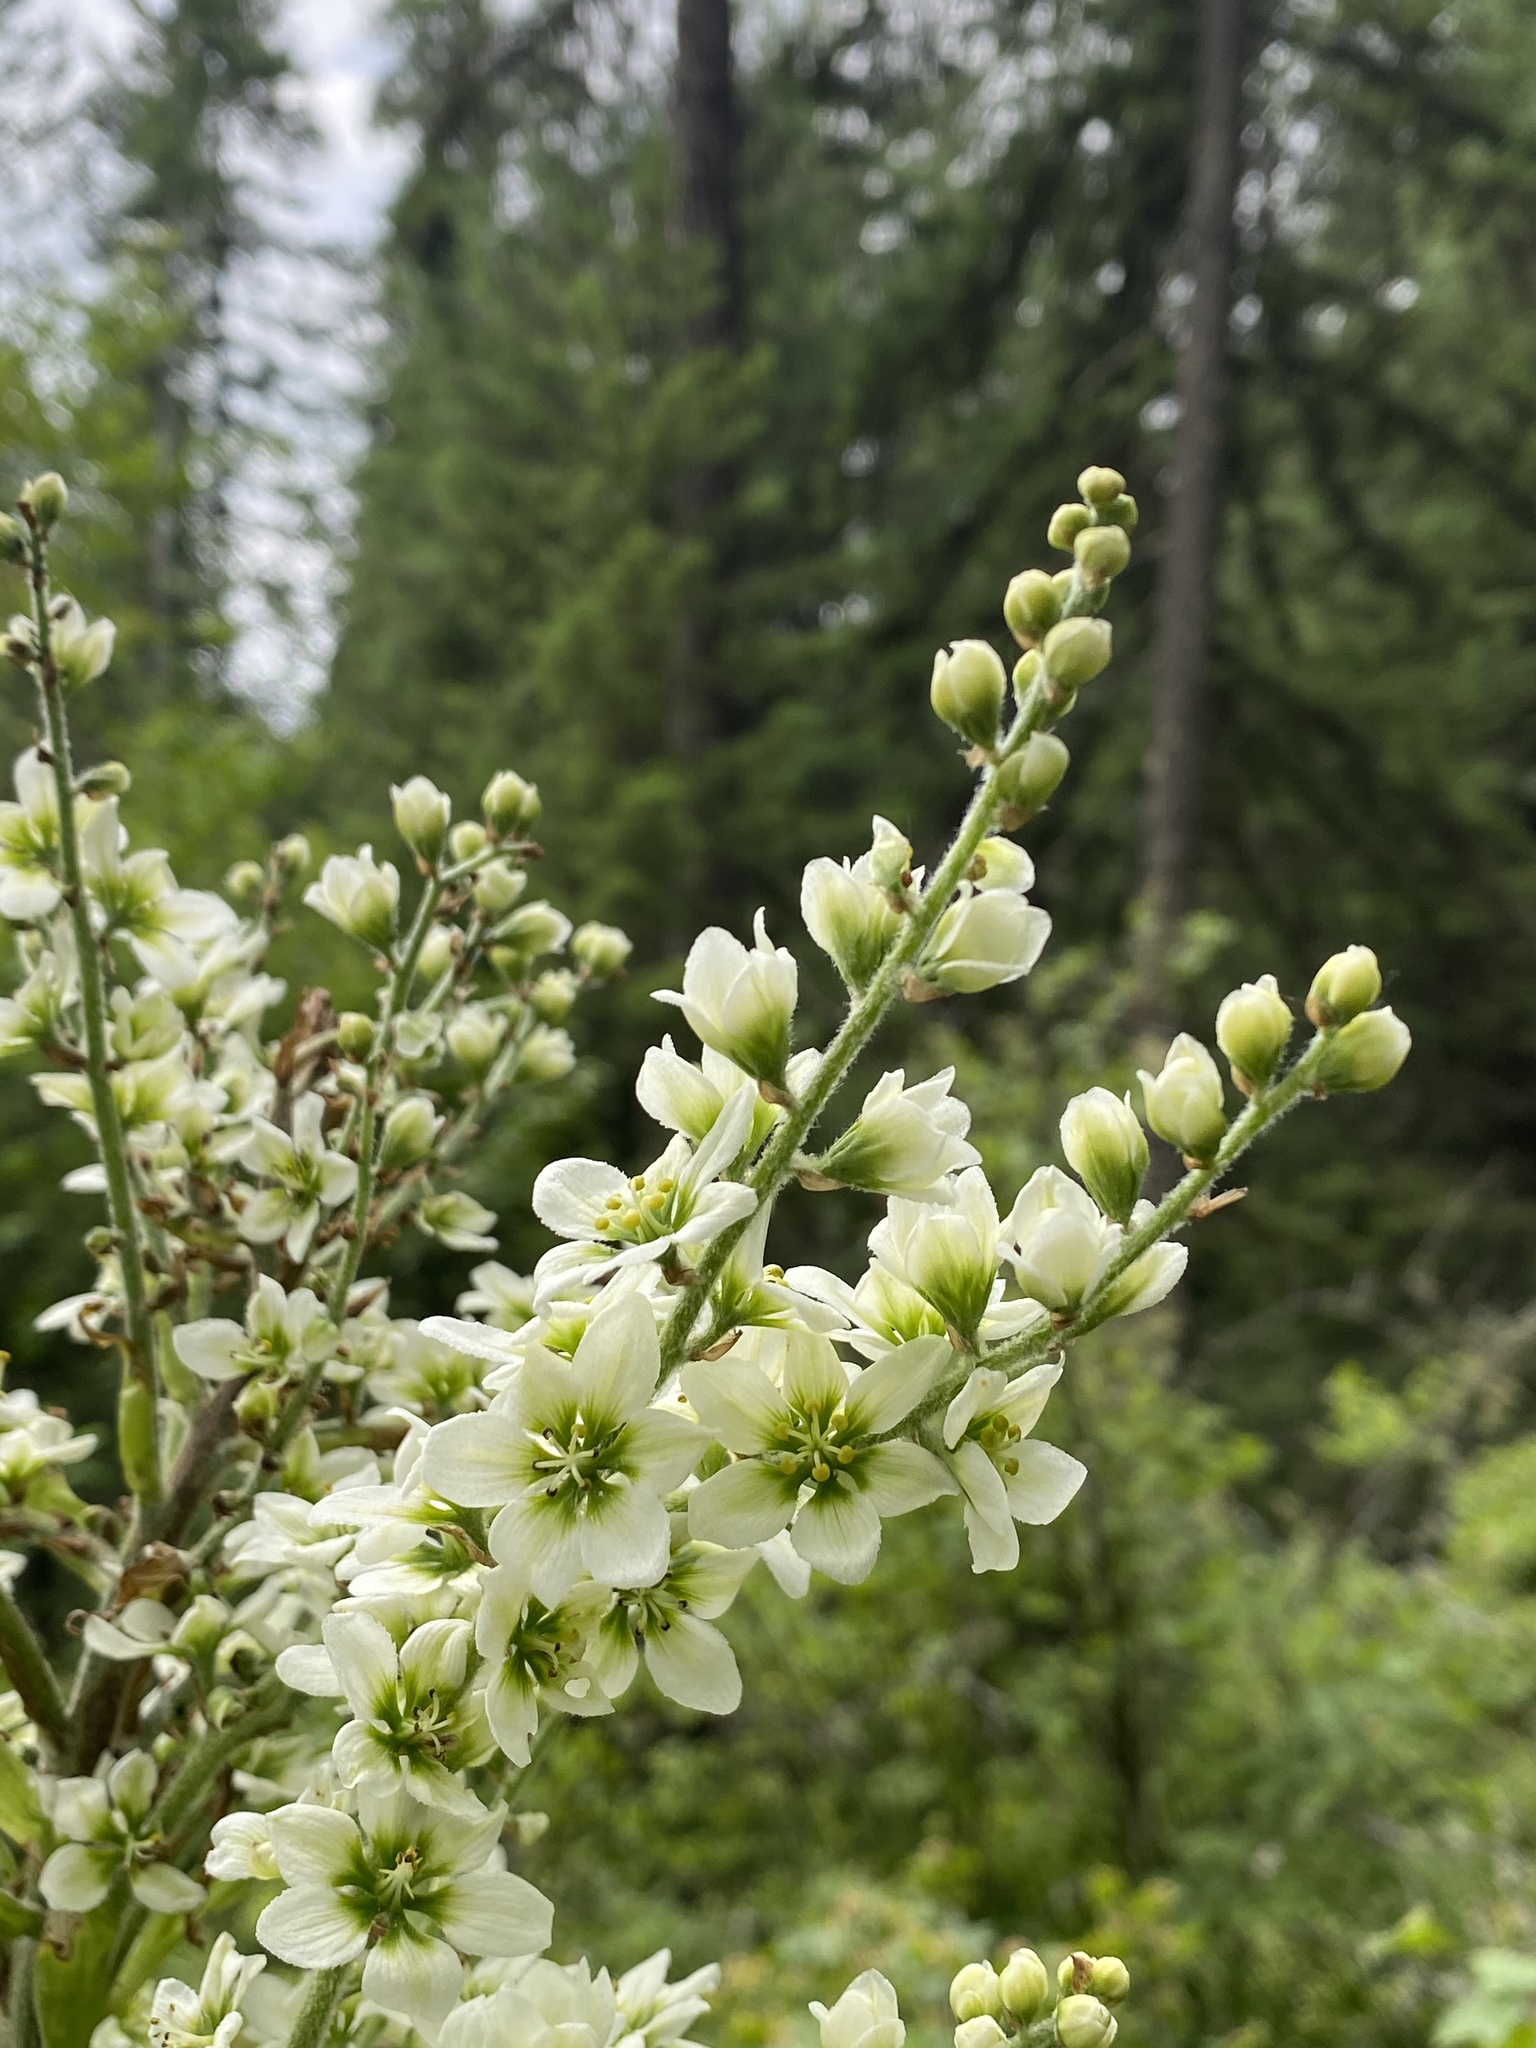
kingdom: Plantae
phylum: Tracheophyta
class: Liliopsida
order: Liliales
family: Melanthiaceae
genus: Veratrum
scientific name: Veratrum californicum
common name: California veratrum
